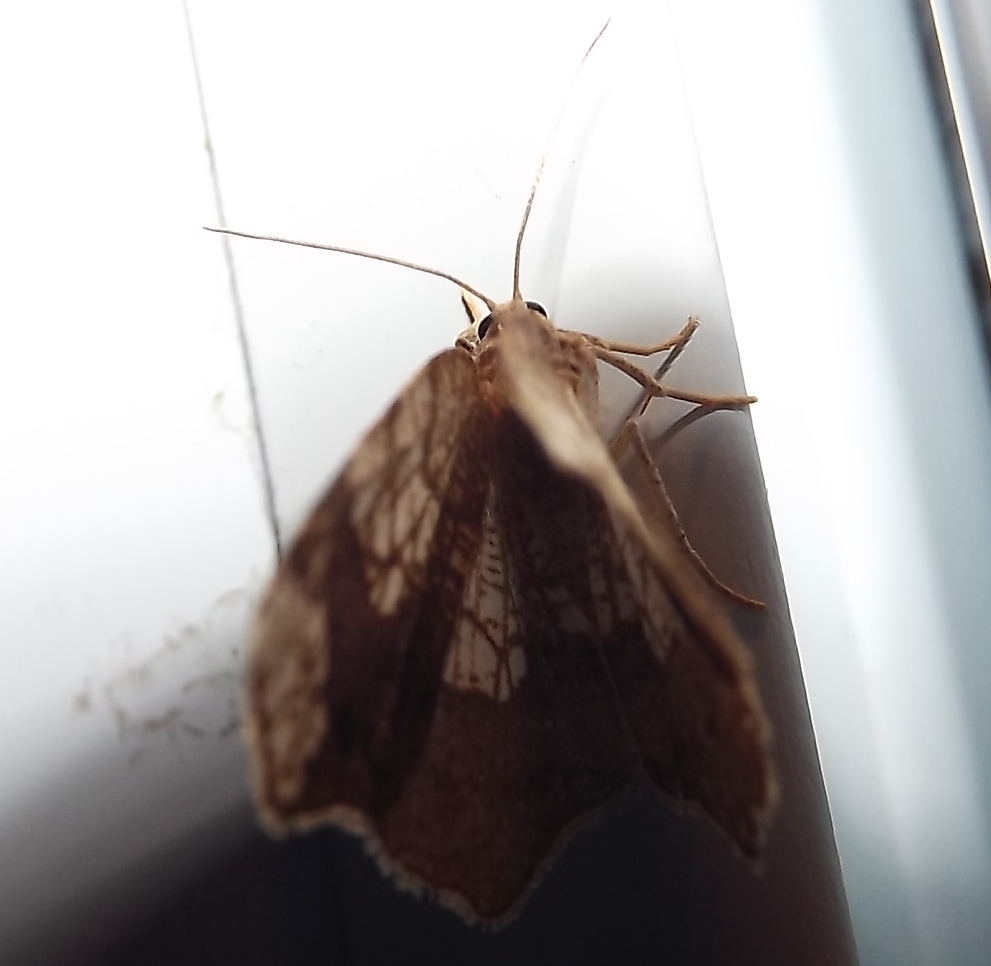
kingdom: Animalia
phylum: Arthropoda
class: Insecta
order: Lepidoptera
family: Geometridae
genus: Nematocampa
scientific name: Nematocampa resistaria
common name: Horned spanworm moth
